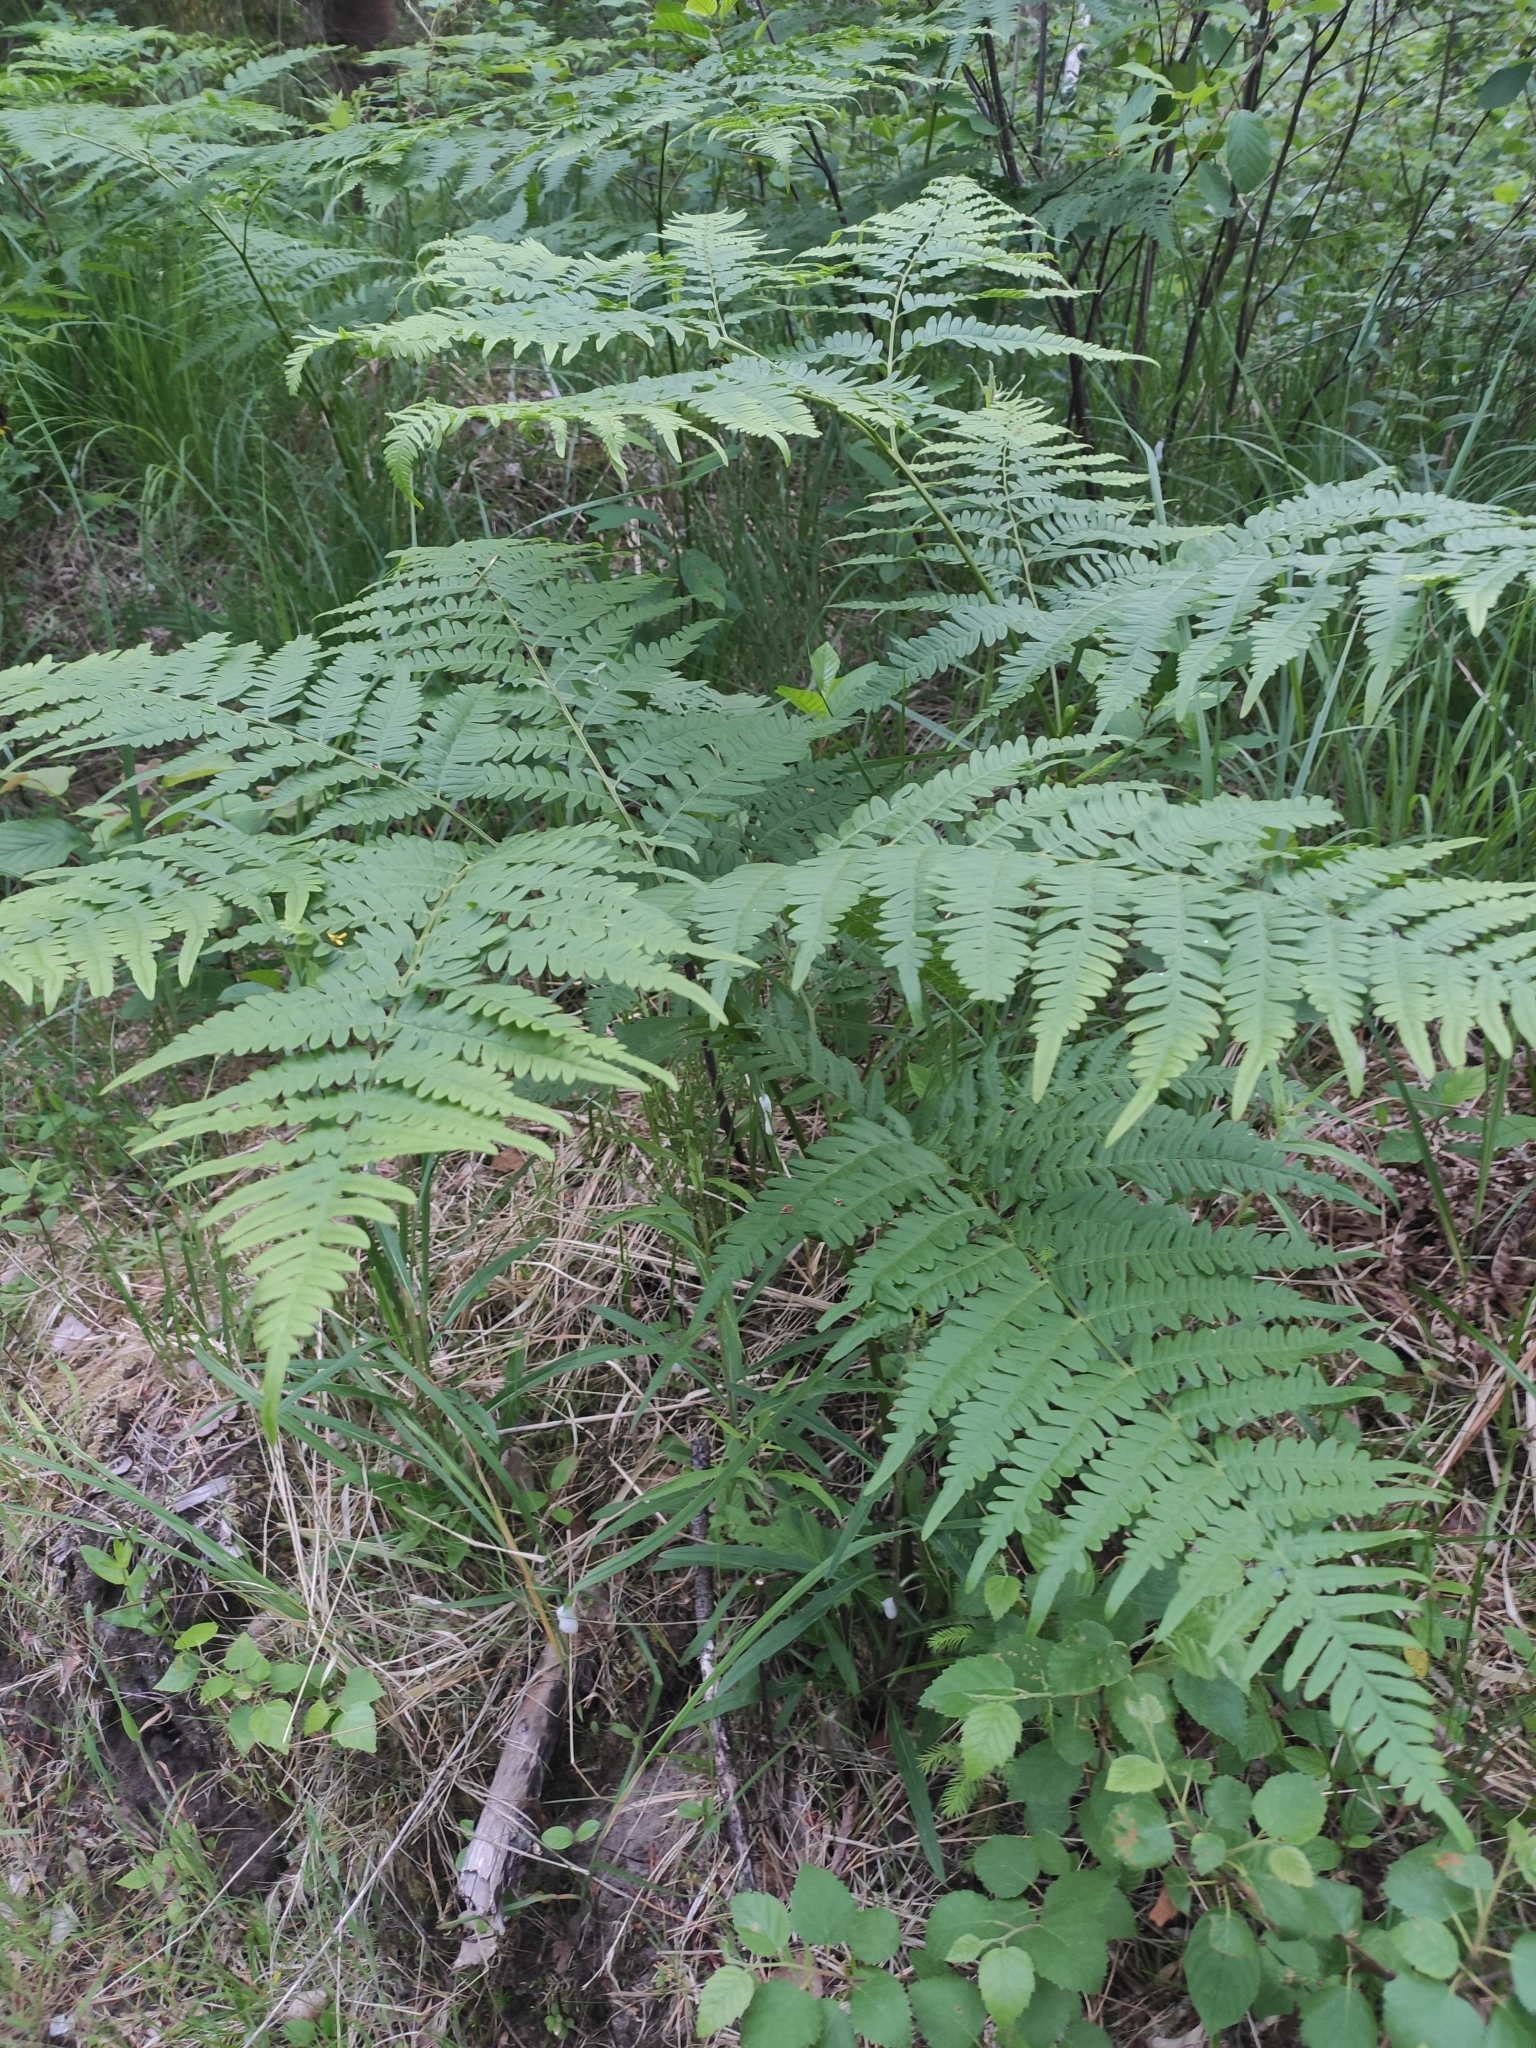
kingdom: Plantae
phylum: Tracheophyta
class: Polypodiopsida
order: Polypodiales
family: Dennstaedtiaceae
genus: Pteridium
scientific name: Pteridium aquilinum
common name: Bracken
